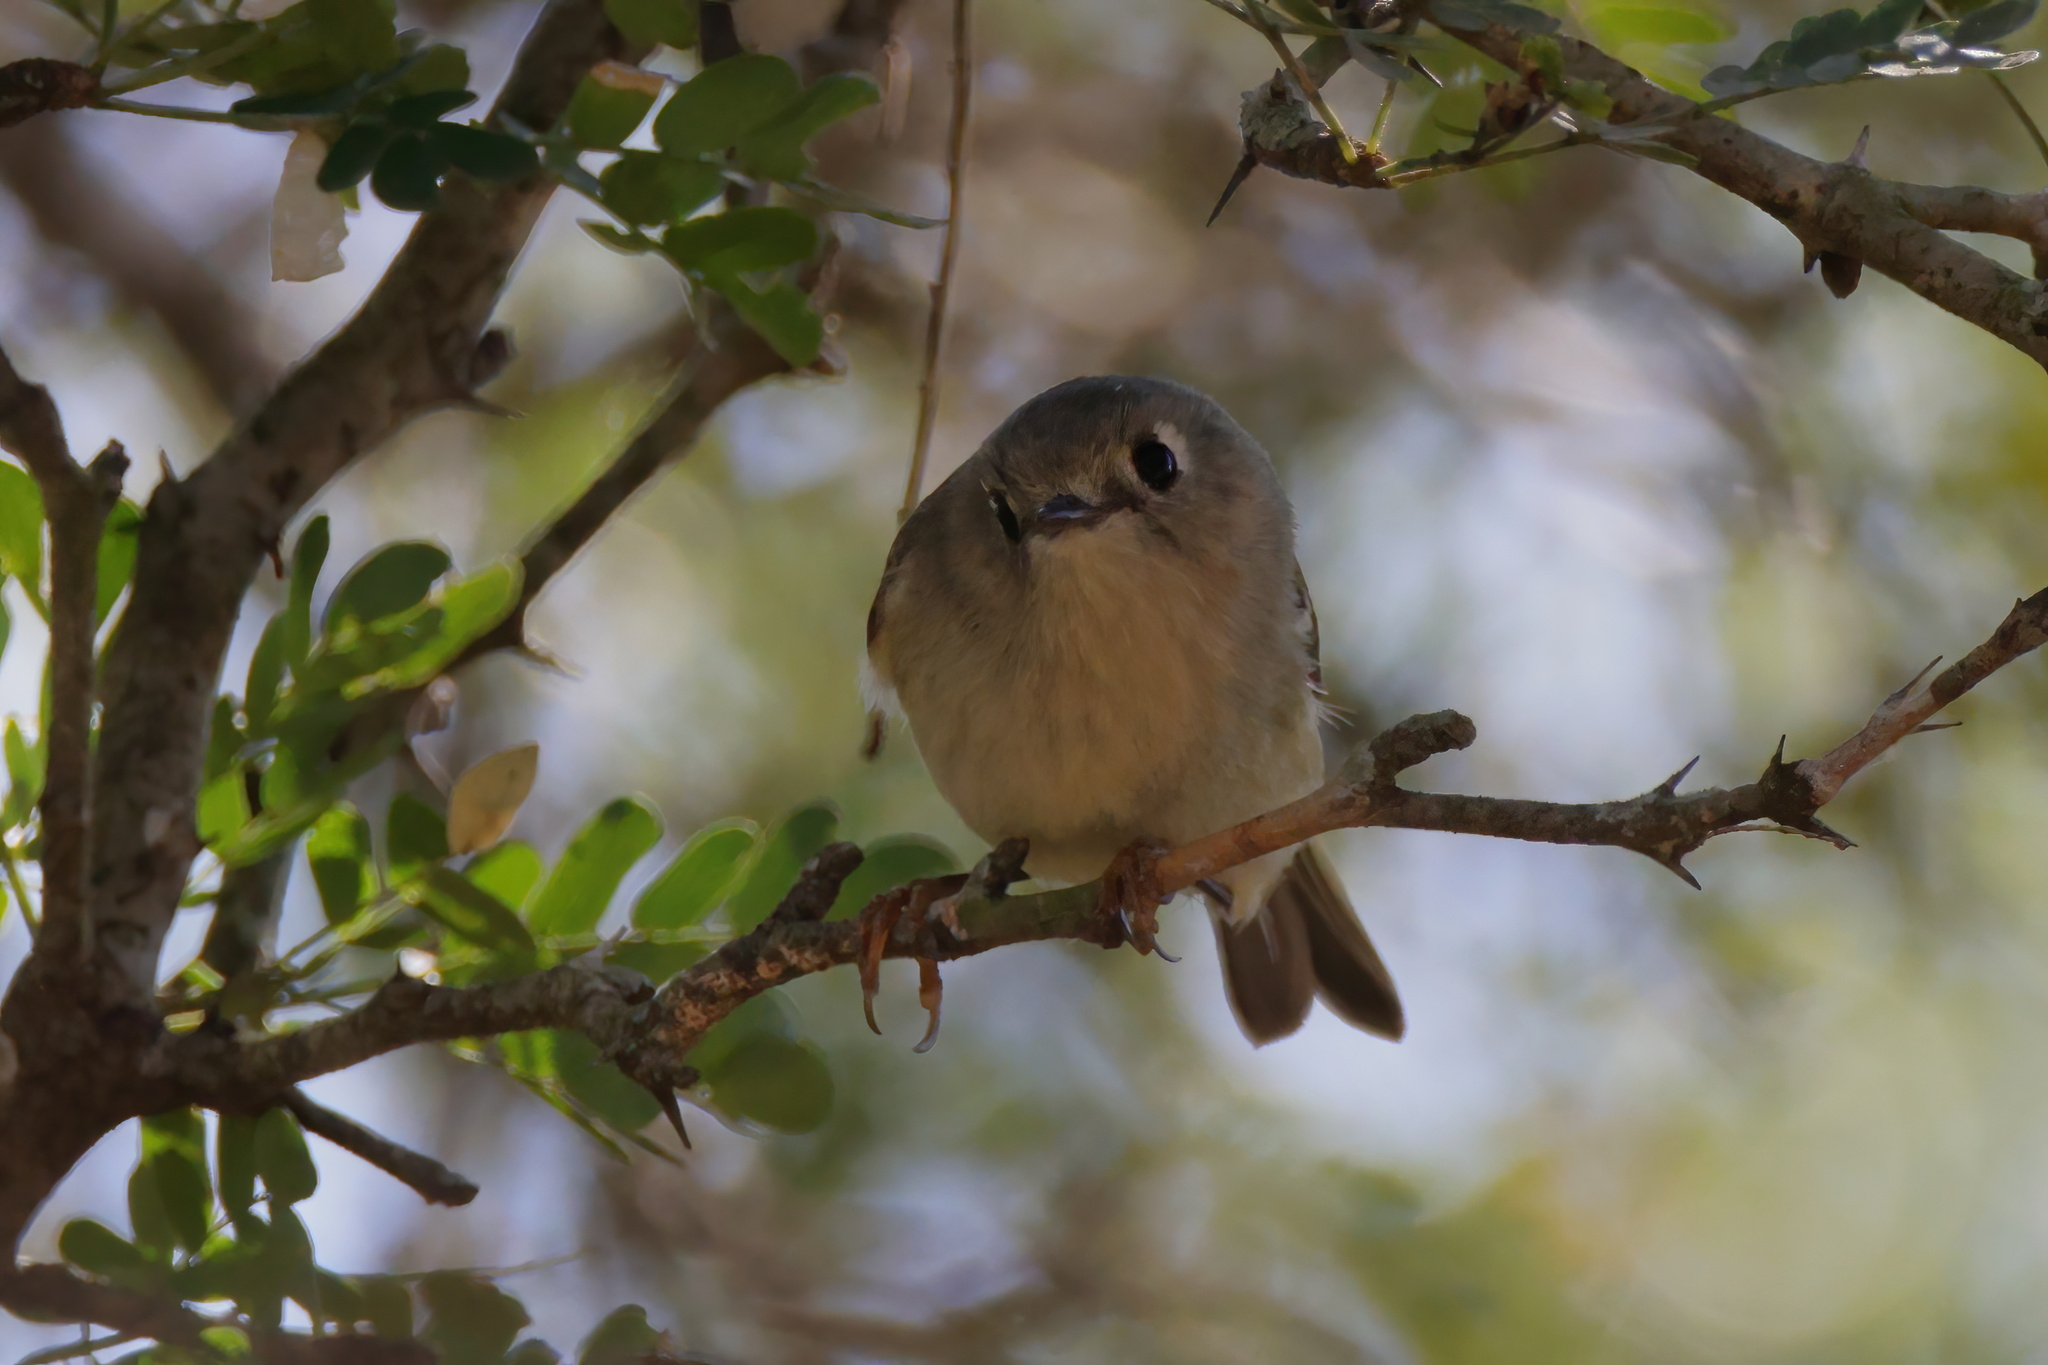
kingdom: Animalia
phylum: Chordata
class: Aves
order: Passeriformes
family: Regulidae
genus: Regulus
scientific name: Regulus calendula
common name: Ruby-crowned kinglet
